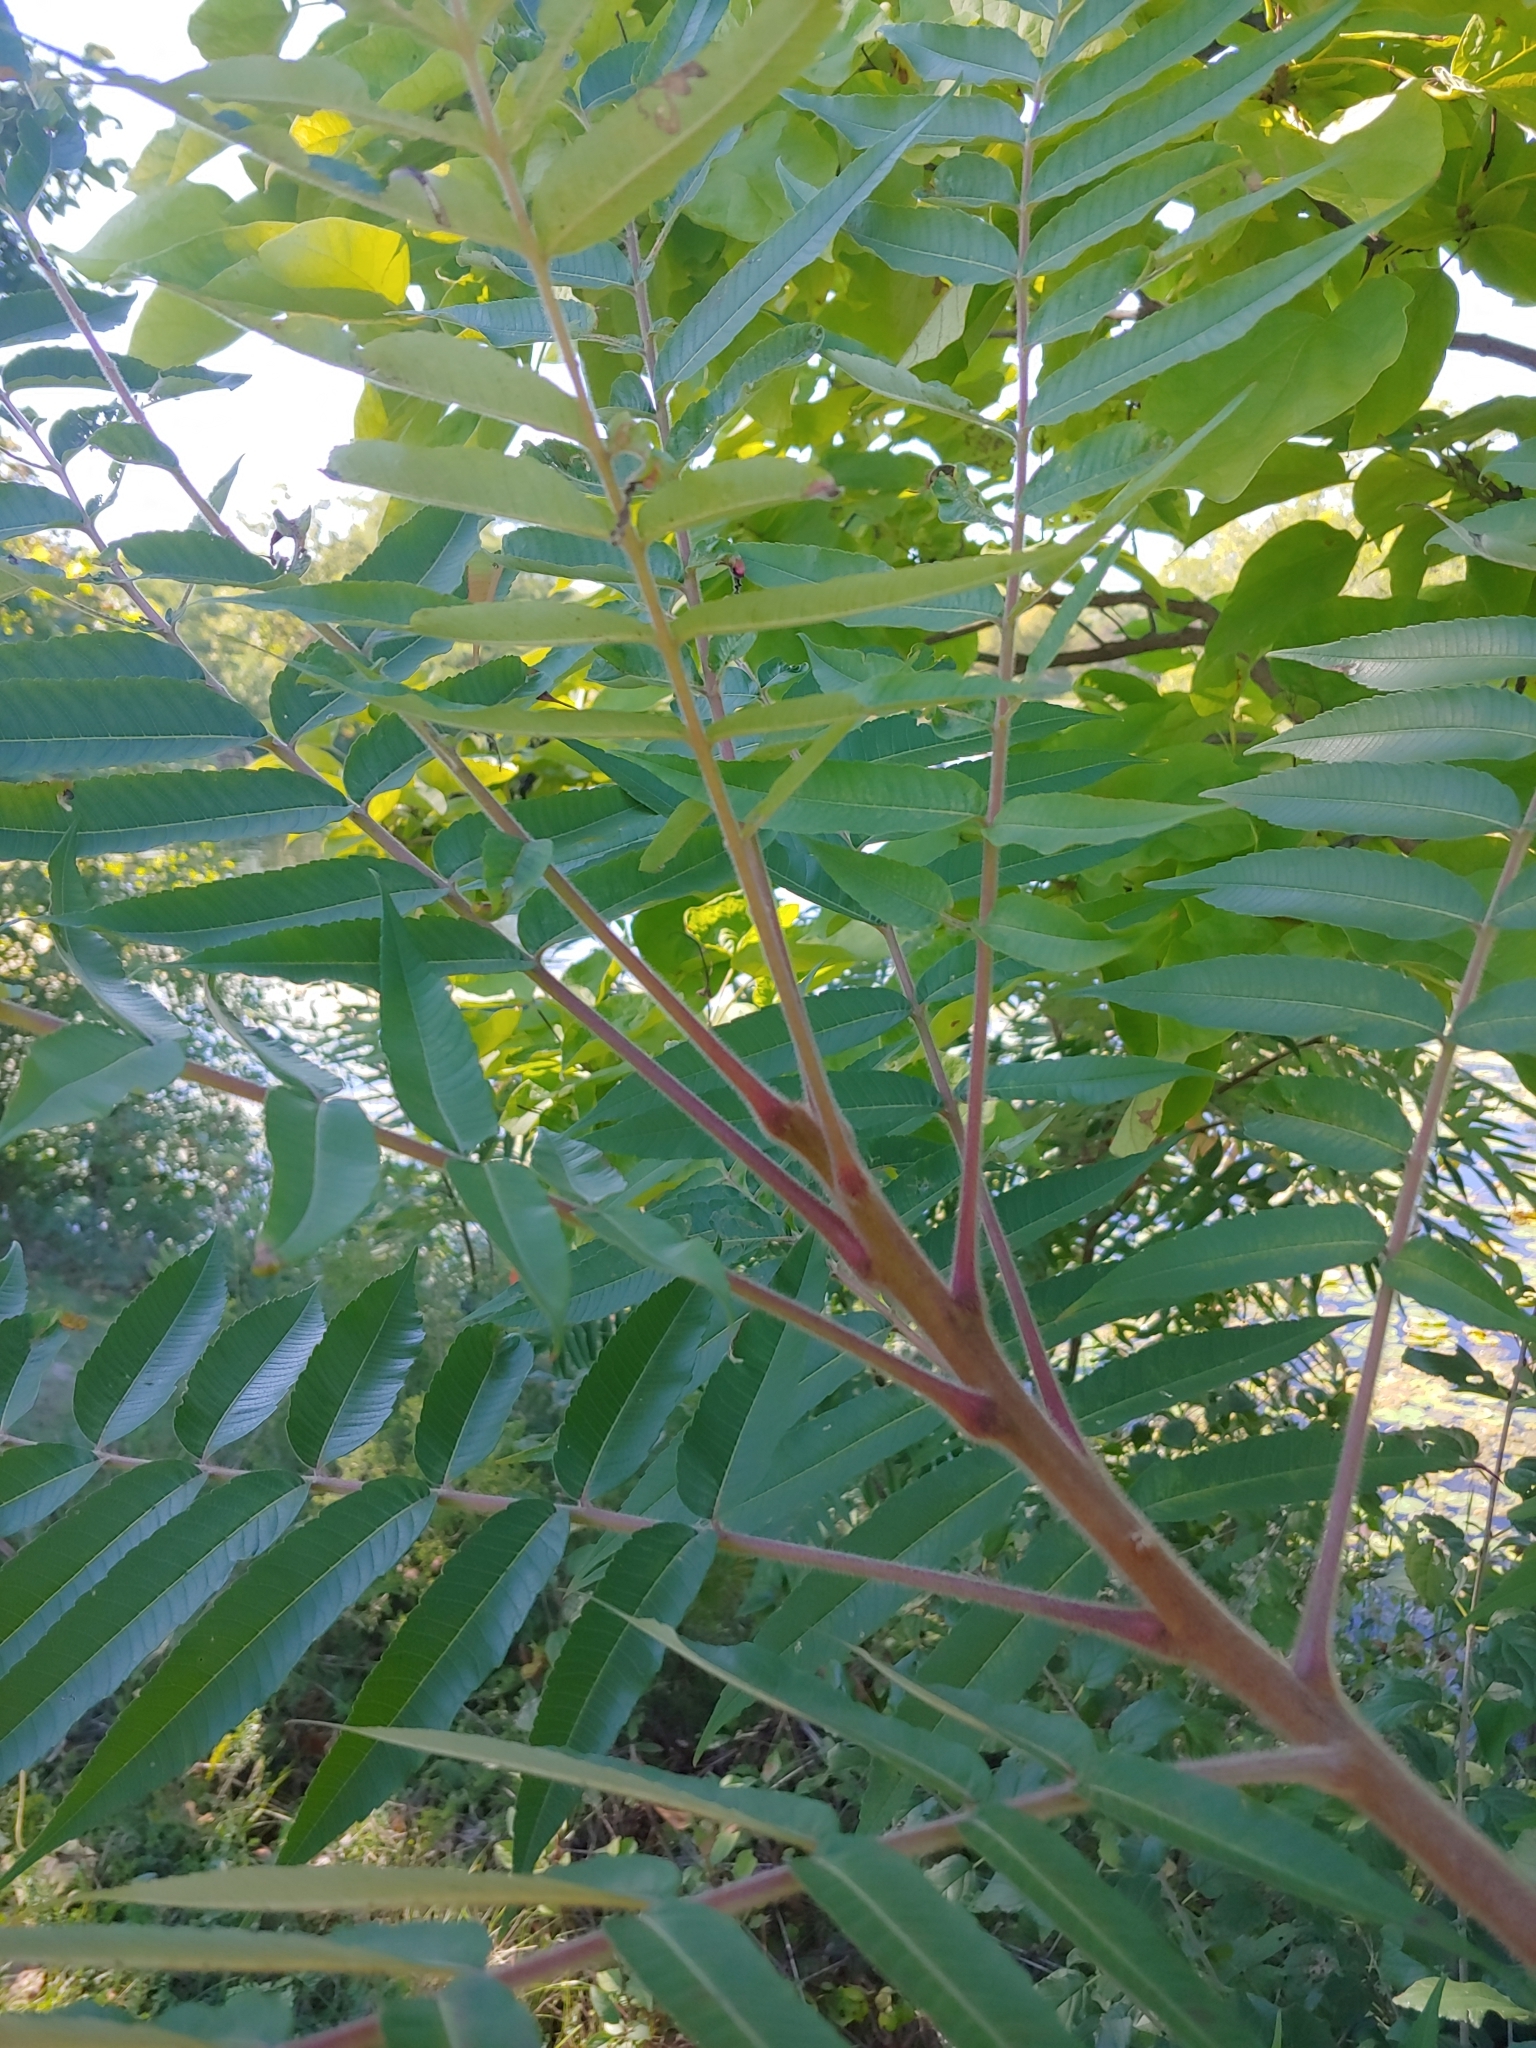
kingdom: Plantae
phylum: Tracheophyta
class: Magnoliopsida
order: Sapindales
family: Anacardiaceae
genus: Rhus
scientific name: Rhus typhina
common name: Staghorn sumac
